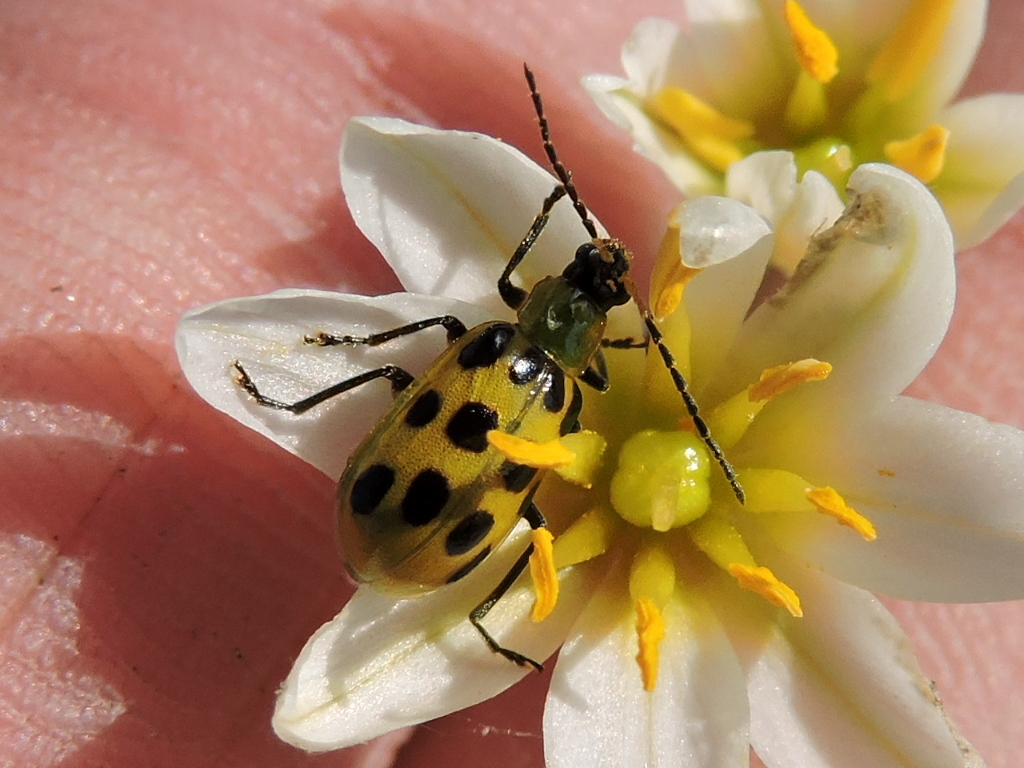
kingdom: Animalia
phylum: Arthropoda
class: Insecta
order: Coleoptera
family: Chrysomelidae
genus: Diabrotica
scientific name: Diabrotica undecimpunctata
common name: Spotted cucumber beetle
